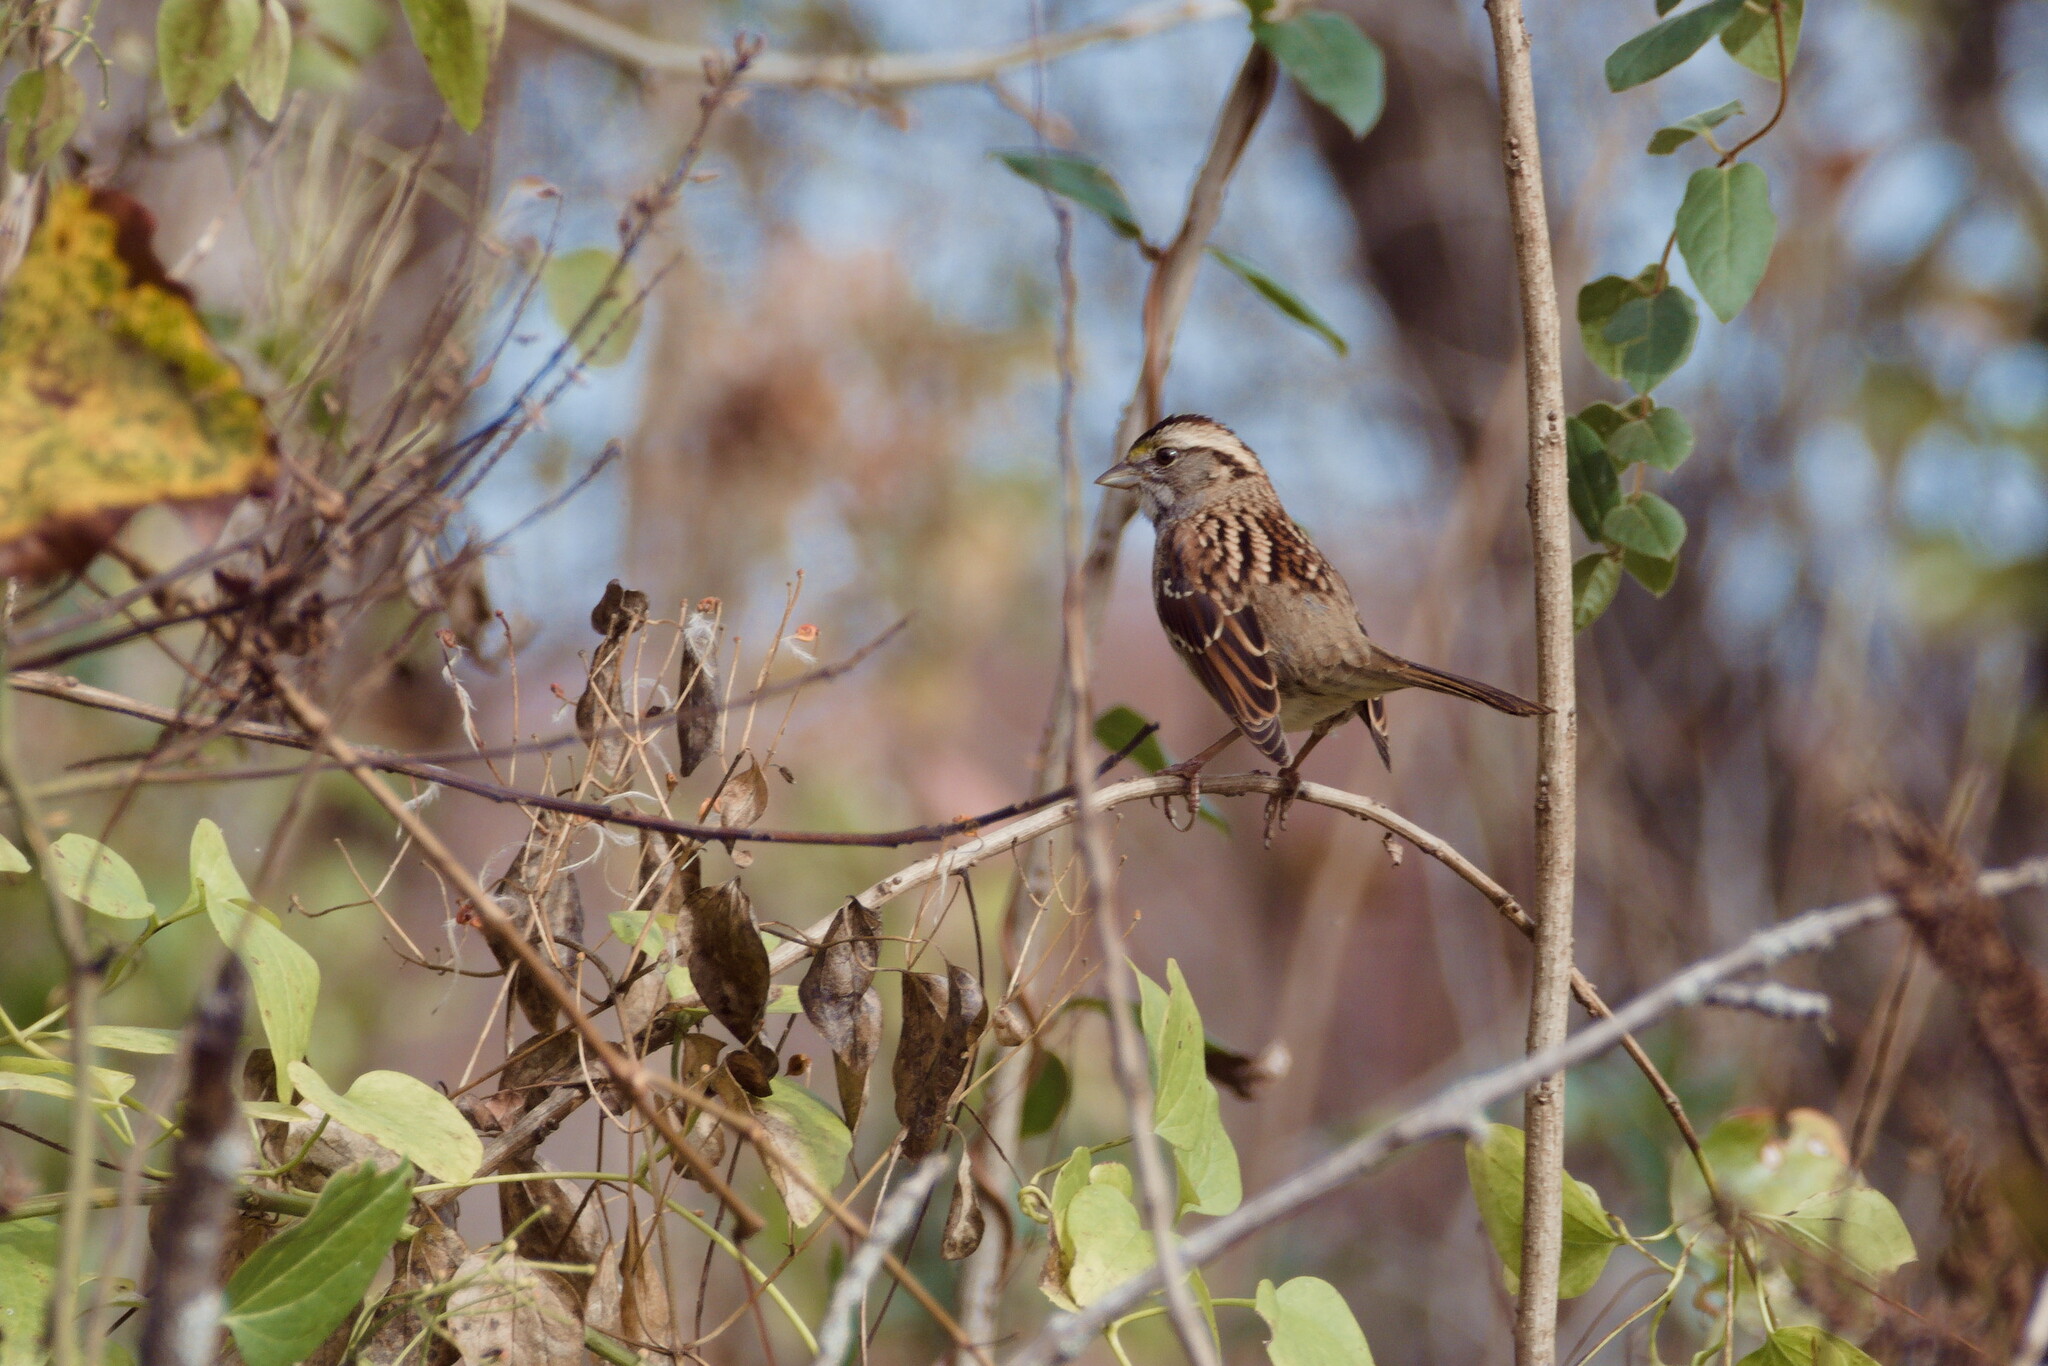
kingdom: Animalia
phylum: Chordata
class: Aves
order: Passeriformes
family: Passerellidae
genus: Zonotrichia
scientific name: Zonotrichia albicollis
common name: White-throated sparrow
